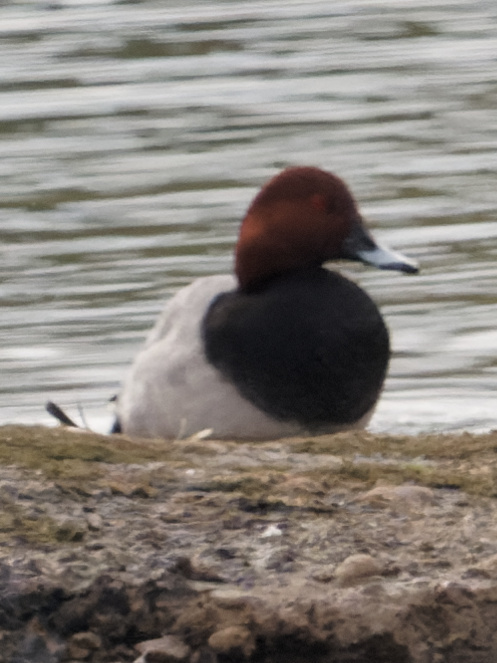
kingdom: Animalia
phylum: Chordata
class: Aves
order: Anseriformes
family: Anatidae
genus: Aythya
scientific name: Aythya ferina
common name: Common pochard
